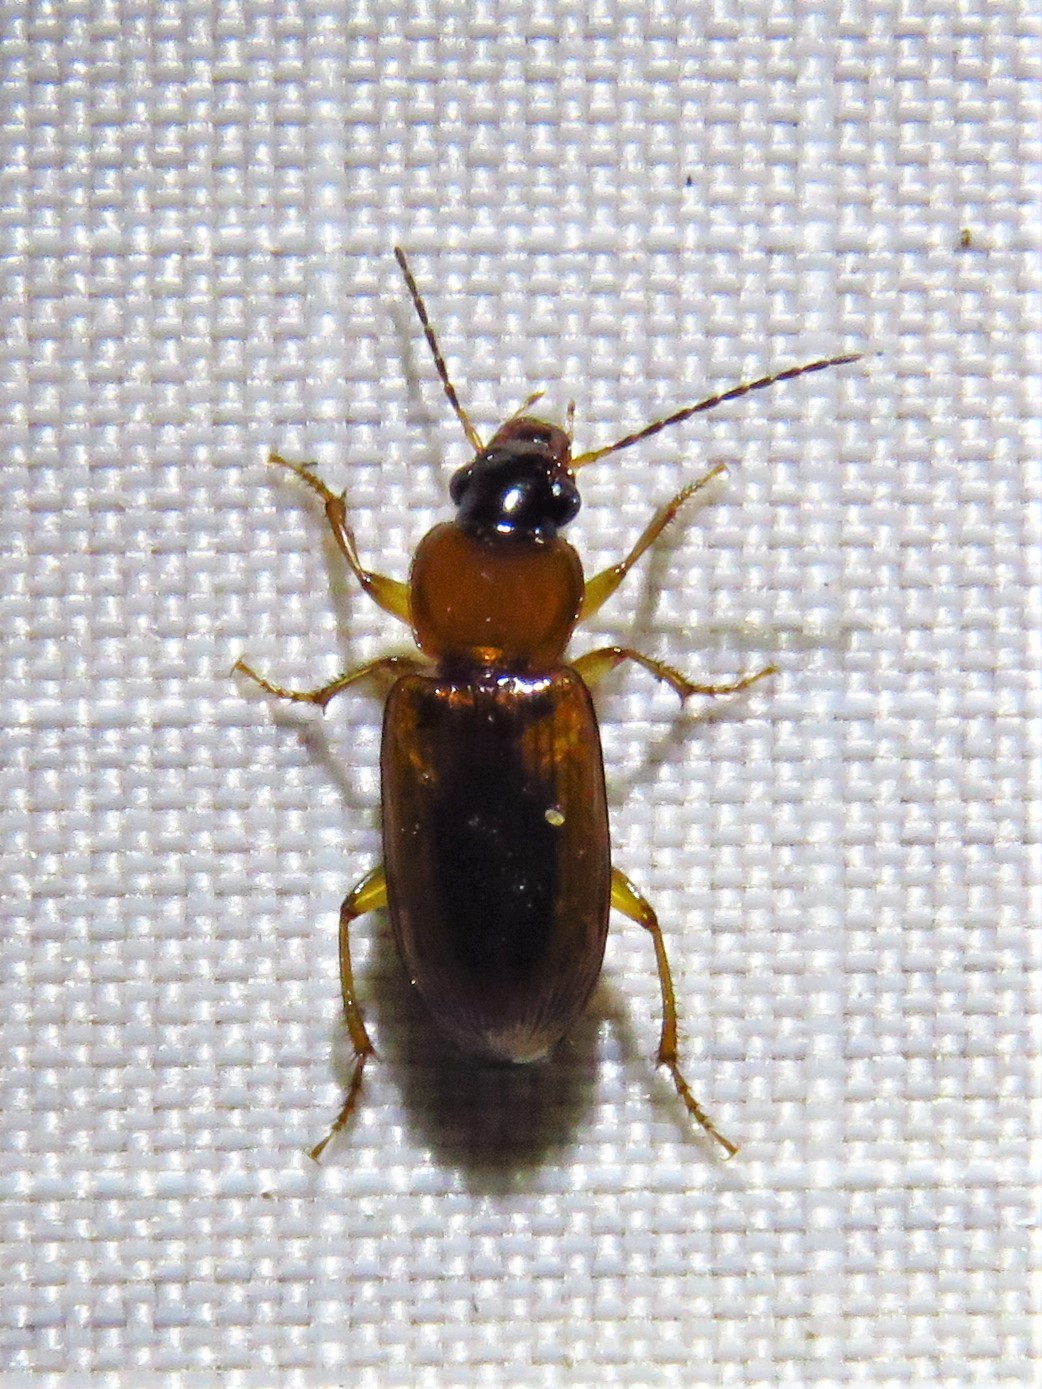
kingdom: Animalia
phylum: Arthropoda
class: Insecta
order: Coleoptera
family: Carabidae
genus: Stenolophus
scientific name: Stenolophus dissimilis
